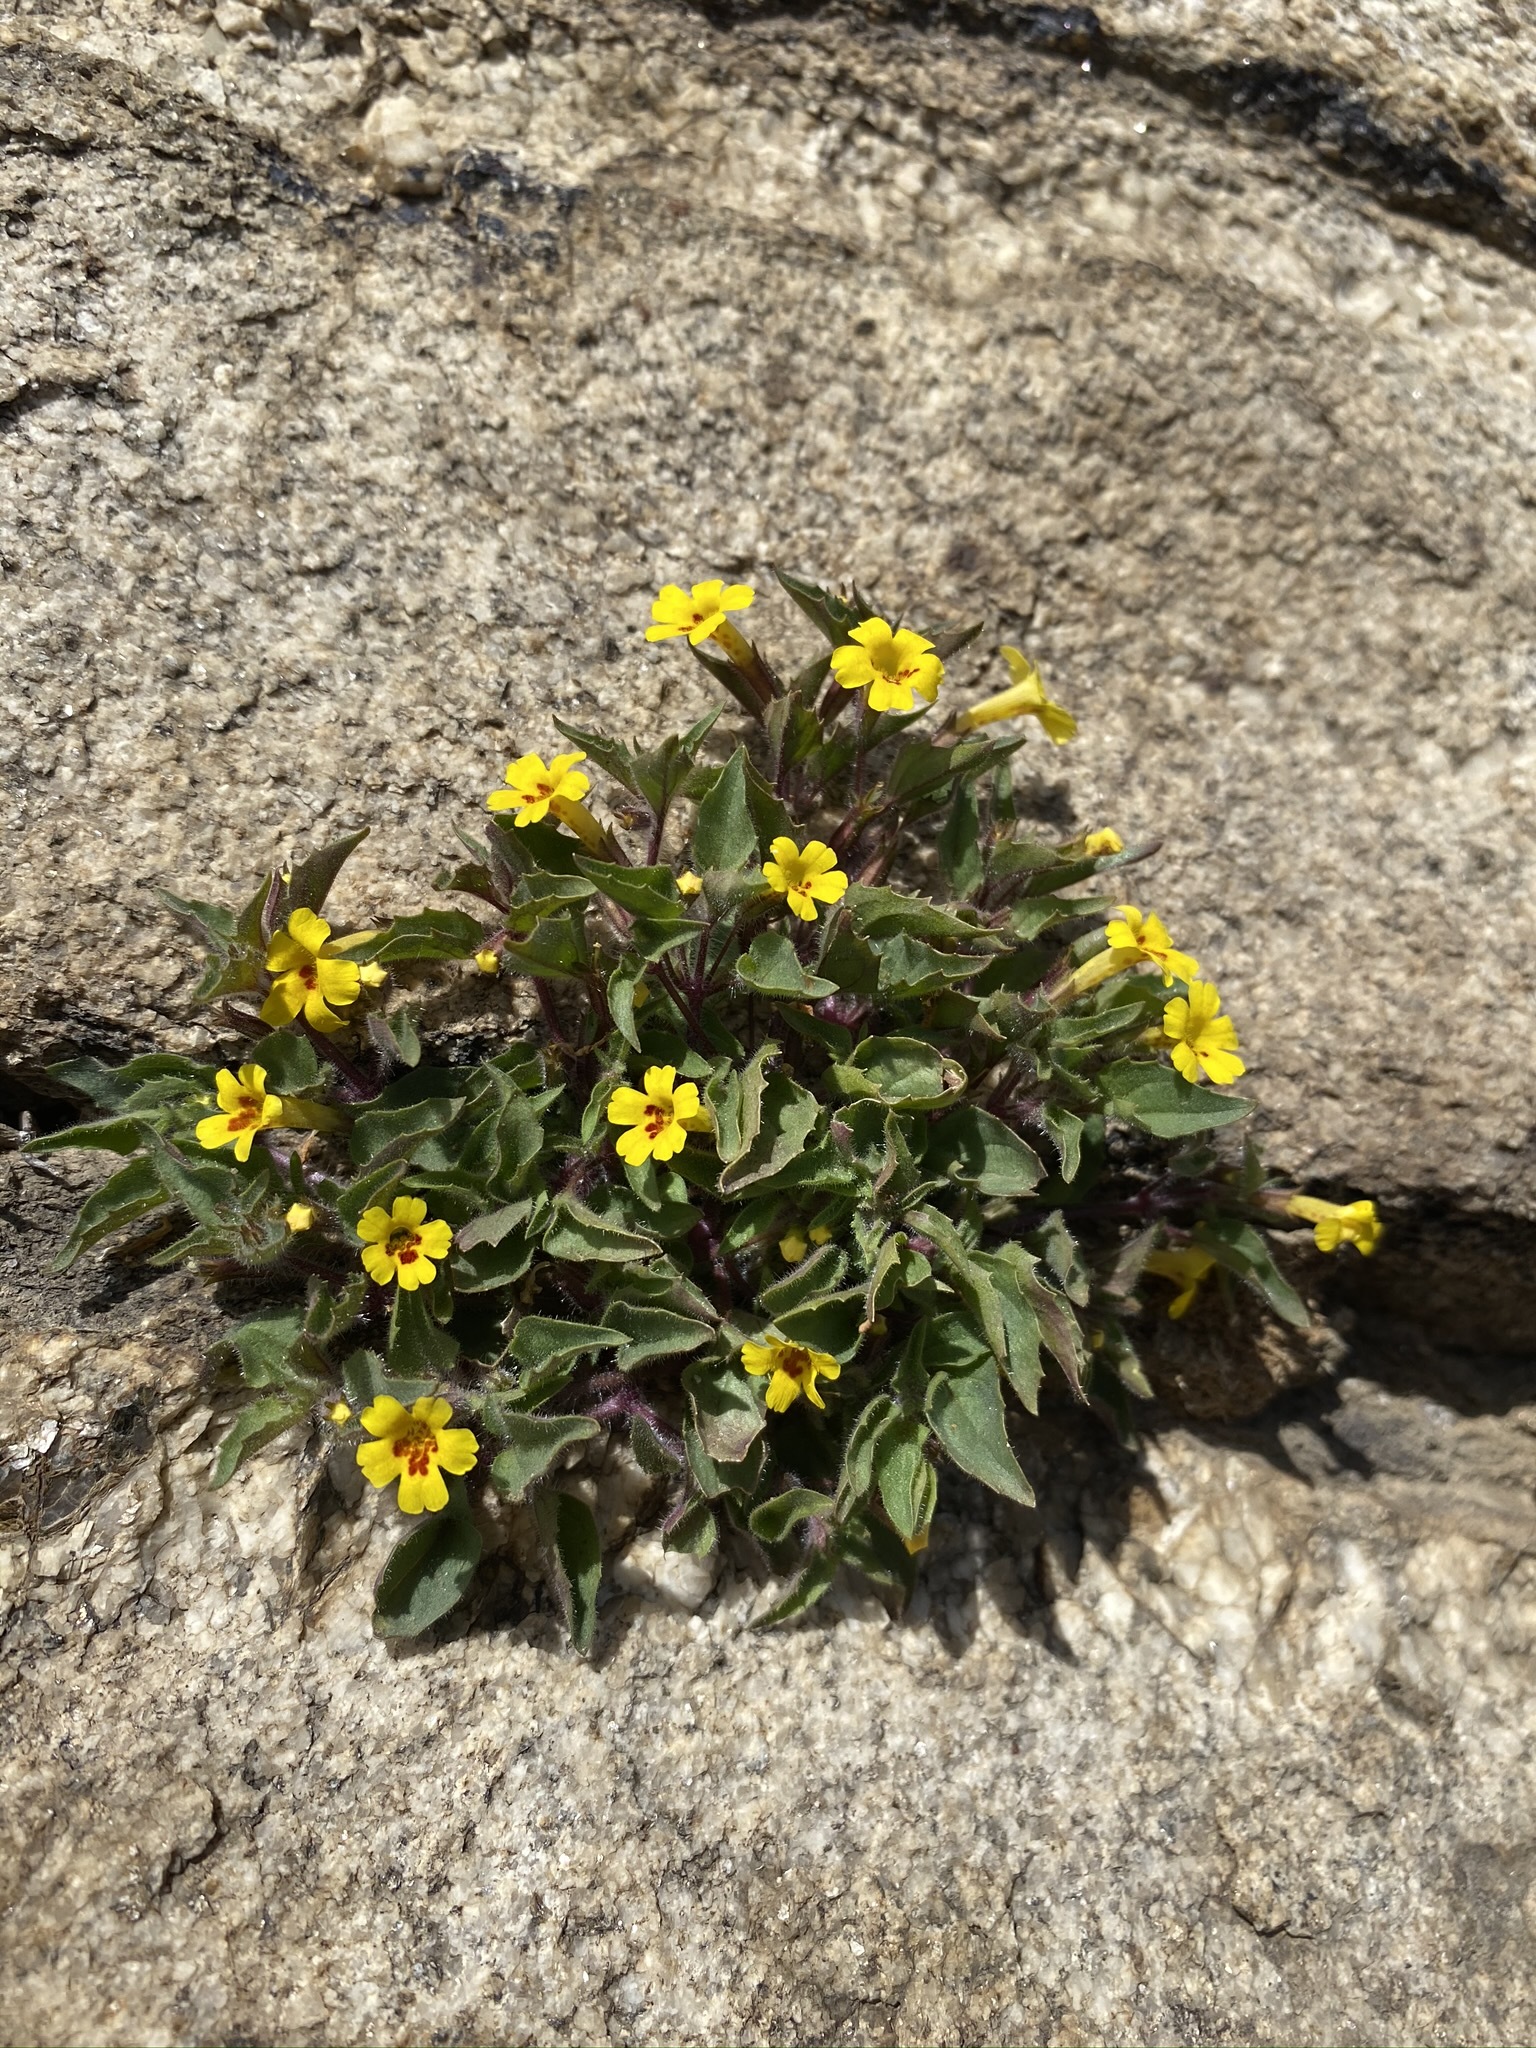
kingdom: Plantae
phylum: Tracheophyta
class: Magnoliopsida
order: Lamiales
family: Phrymaceae
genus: Erythranthe
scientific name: Erythranthe geniculata
